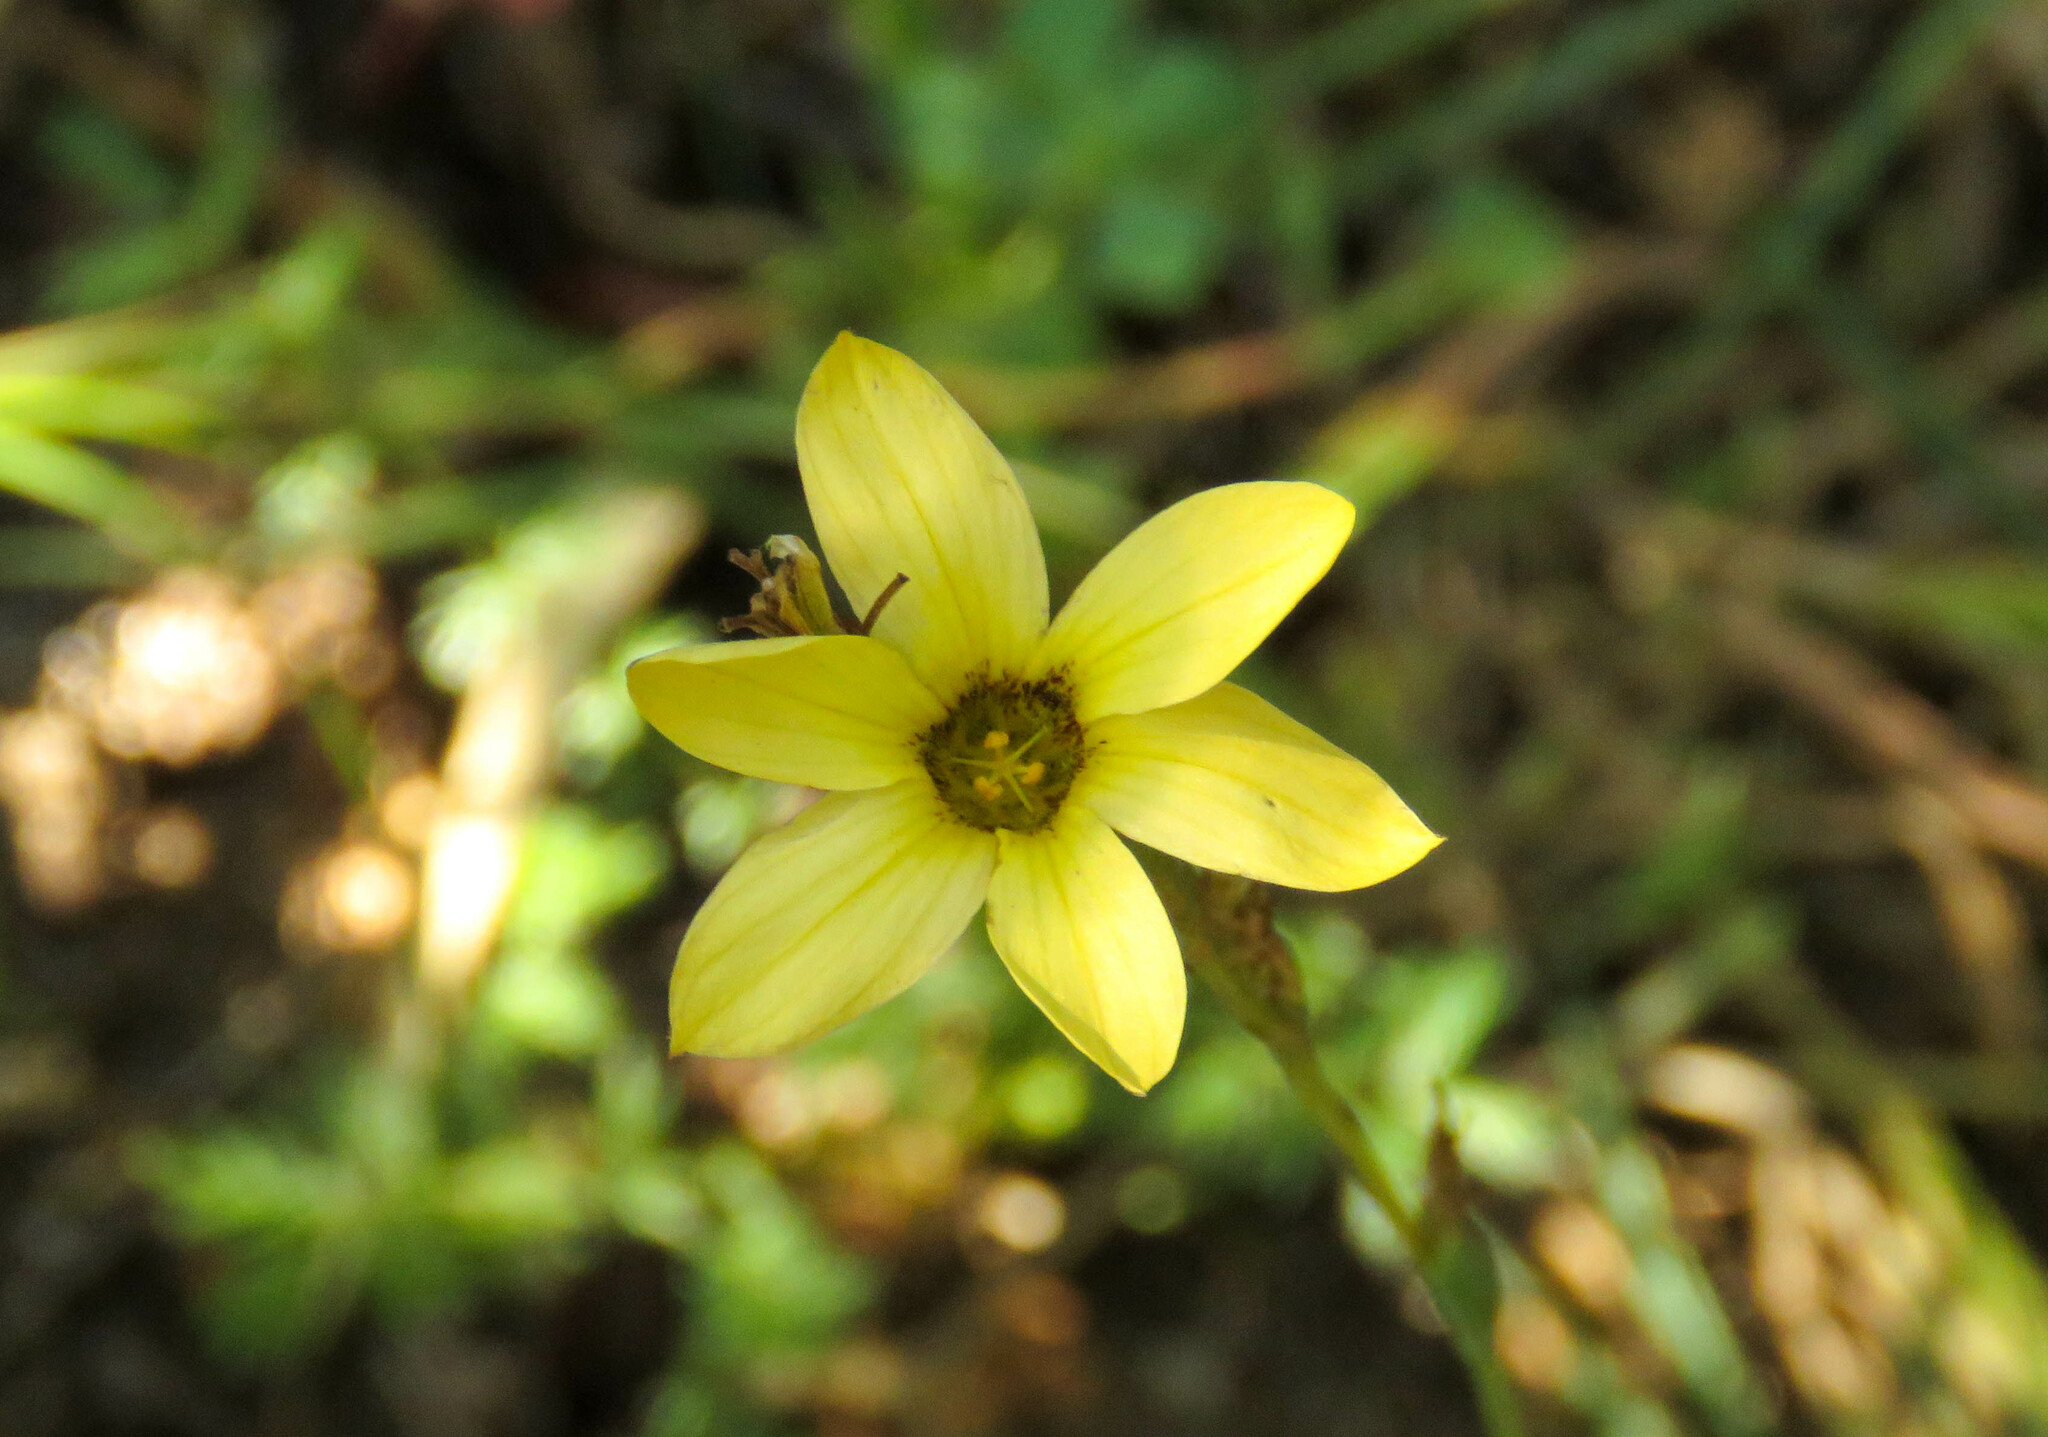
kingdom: Plantae
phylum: Tracheophyta
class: Liliopsida
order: Asparagales
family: Iridaceae
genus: Sisyrinchium
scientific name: Sisyrinchium arenarium
